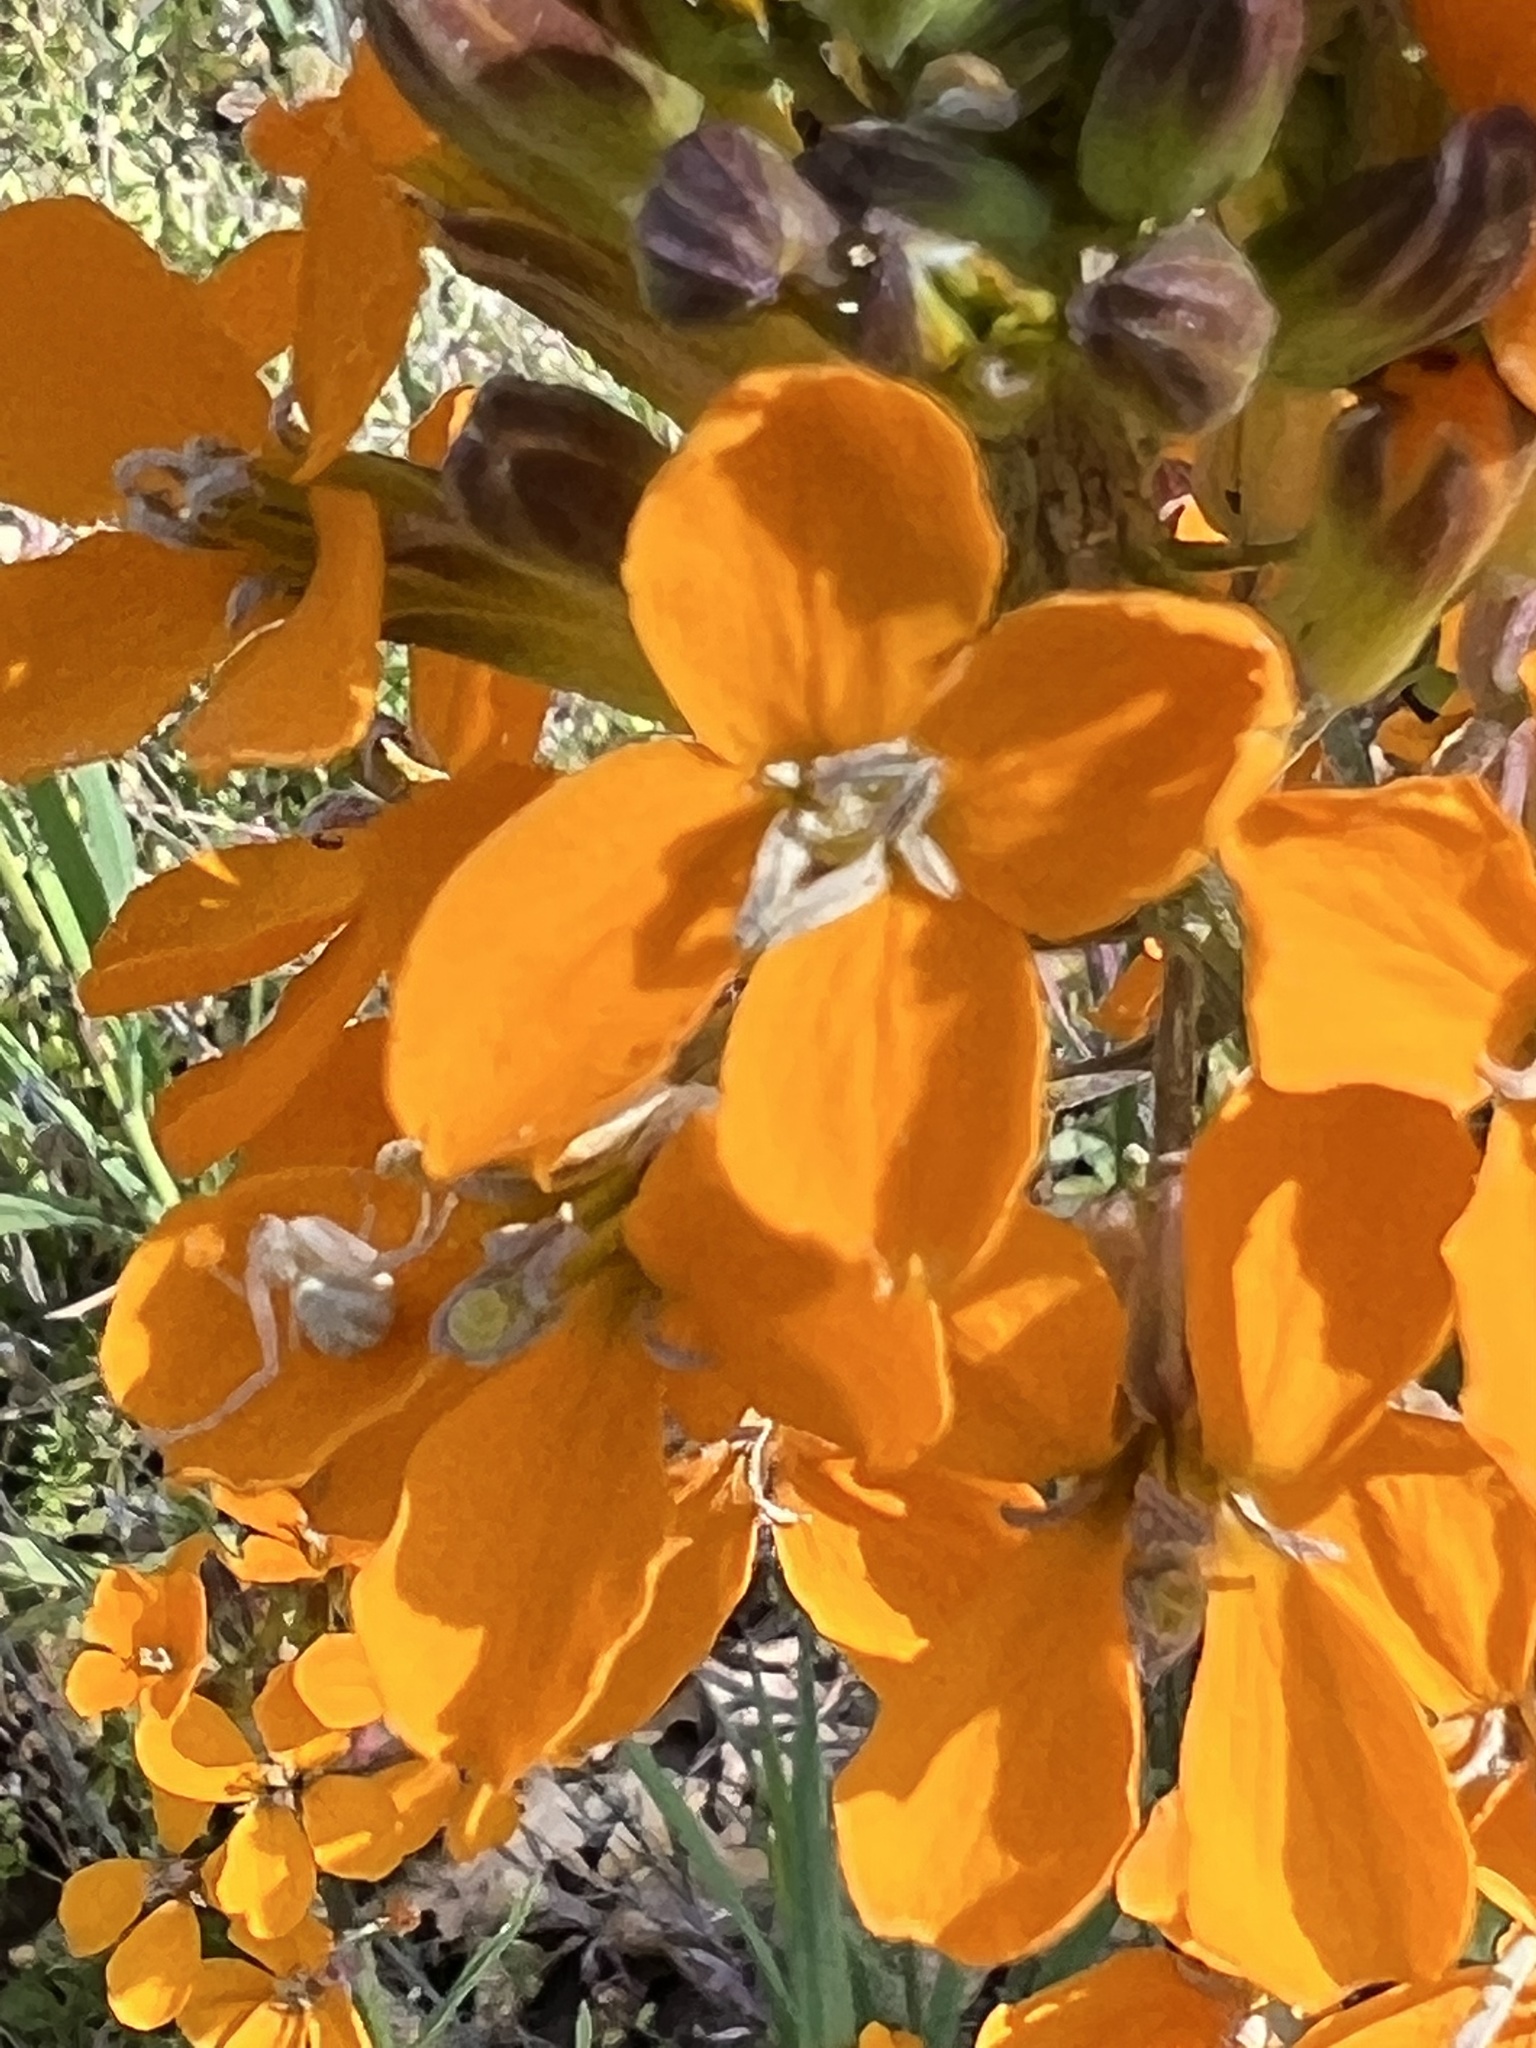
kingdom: Plantae
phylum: Tracheophyta
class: Magnoliopsida
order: Brassicales
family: Brassicaceae
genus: Erysimum
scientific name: Erysimum capitatum
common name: Western wallflower
